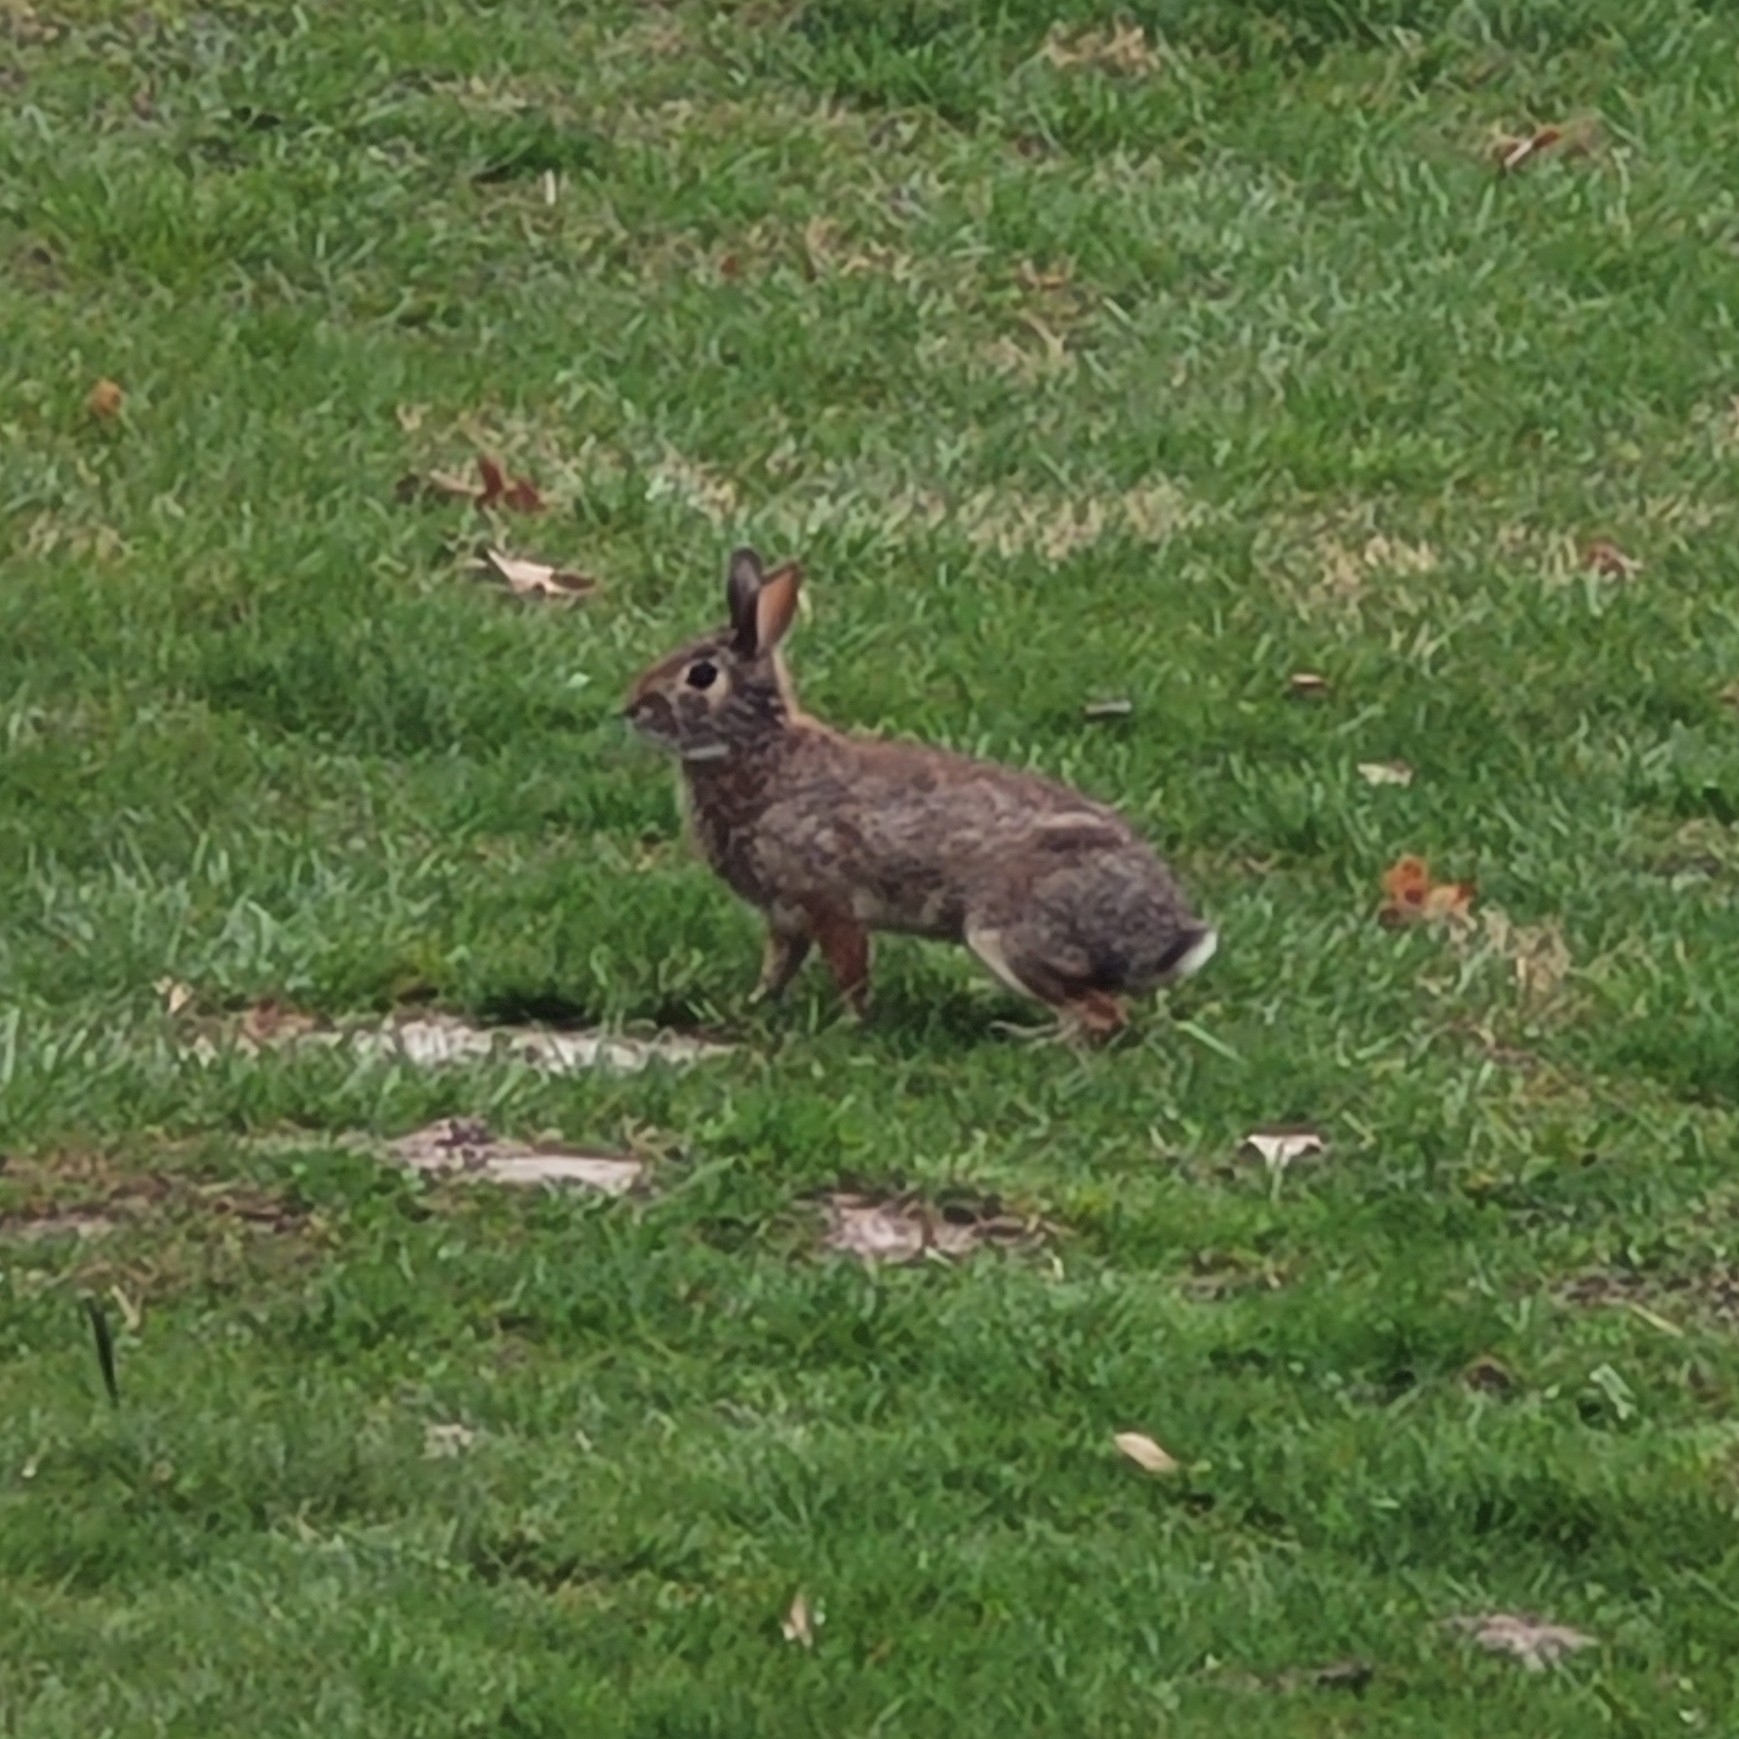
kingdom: Animalia
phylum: Chordata
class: Mammalia
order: Lagomorpha
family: Leporidae
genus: Sylvilagus
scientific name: Sylvilagus floridanus
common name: Eastern cottontail
